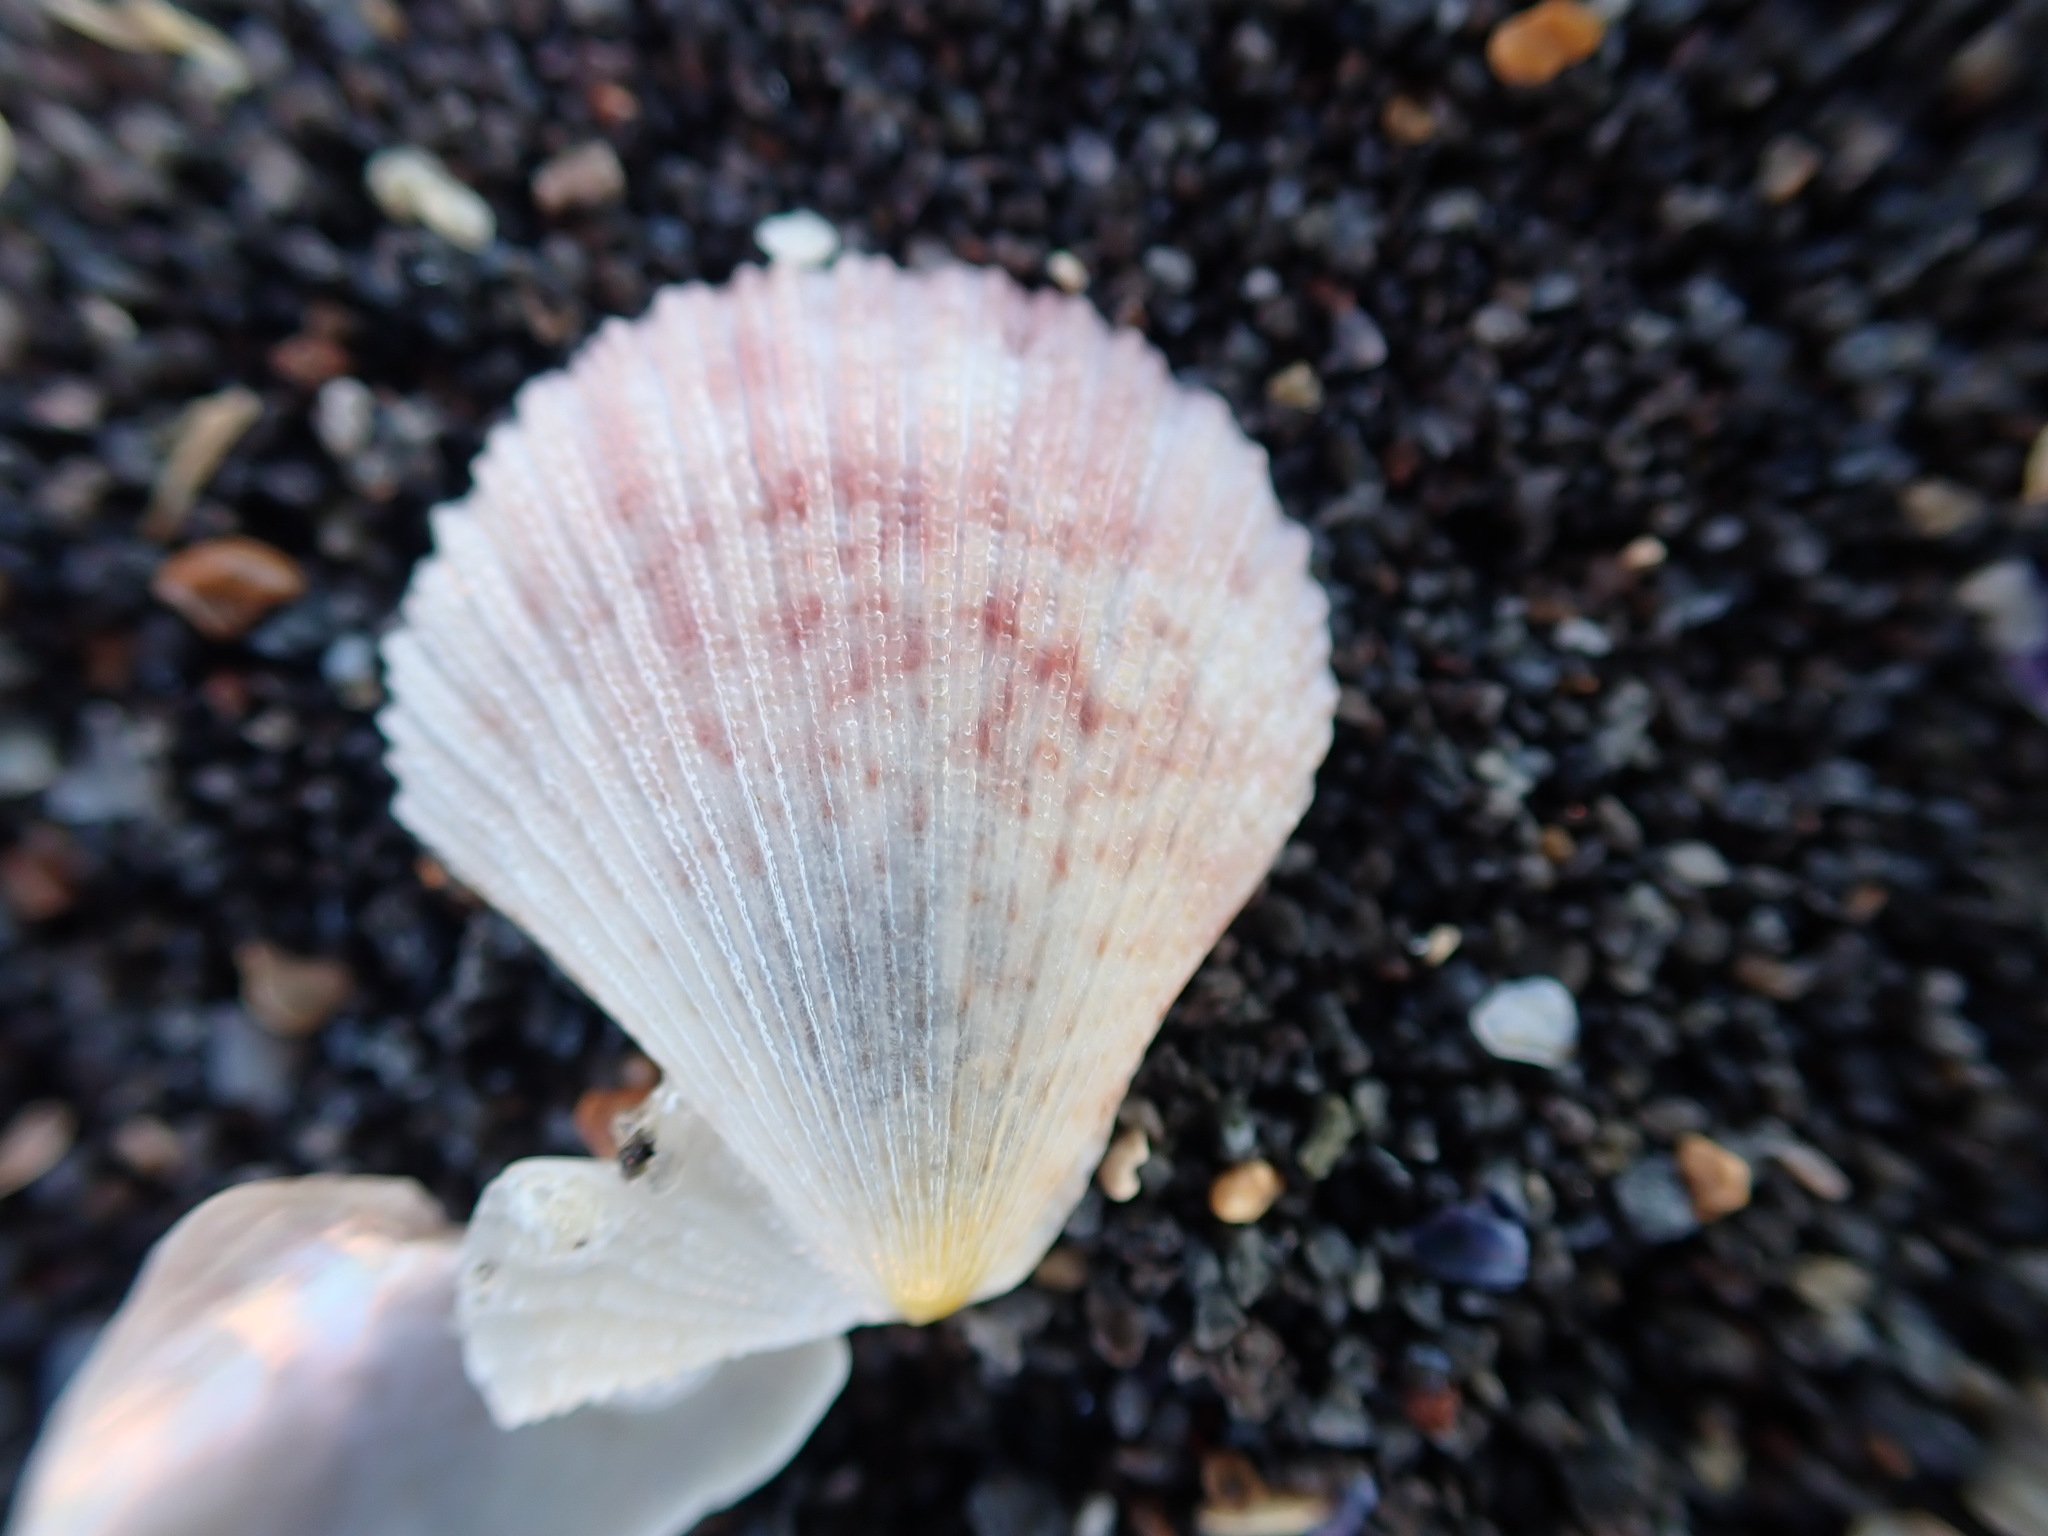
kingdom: Animalia
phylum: Mollusca
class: Bivalvia
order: Pectinida
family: Pectinidae
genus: Talochlamys
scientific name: Talochlamys zelandiae
